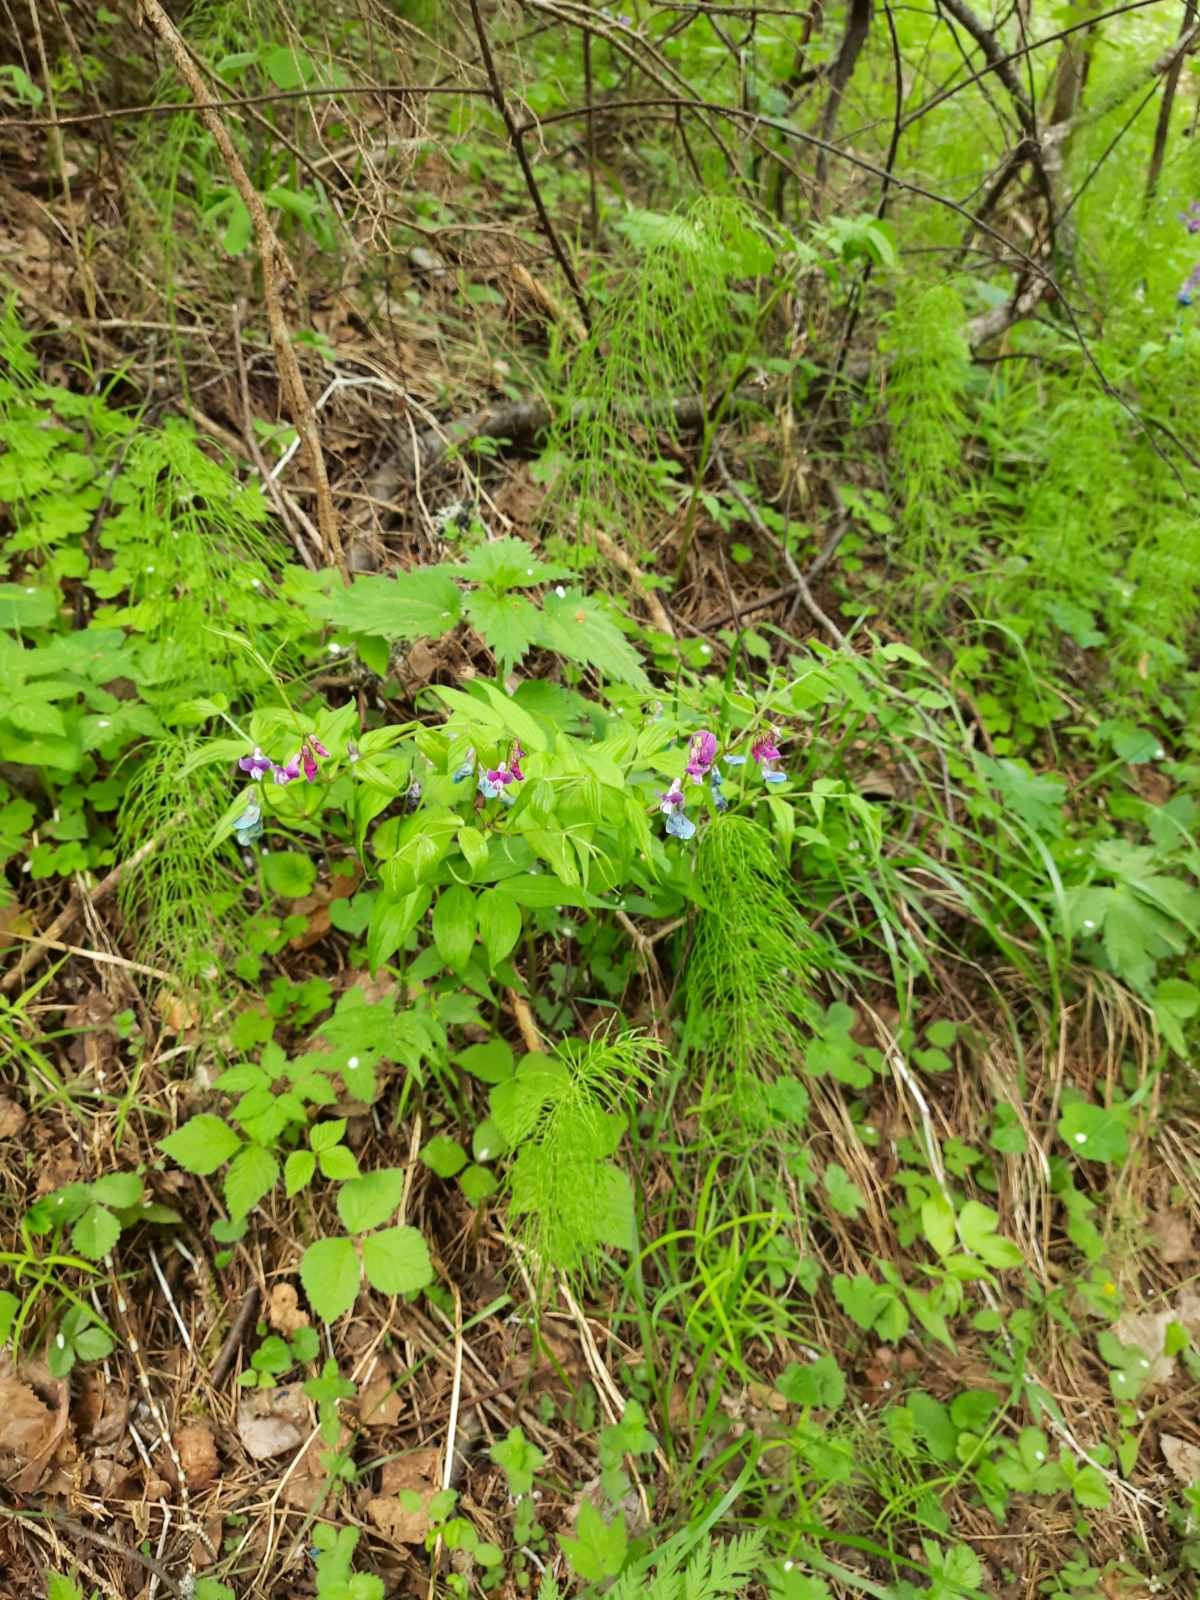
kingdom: Plantae
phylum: Tracheophyta
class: Magnoliopsida
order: Fabales
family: Fabaceae
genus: Lathyrus
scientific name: Lathyrus vernus
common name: Spring pea
